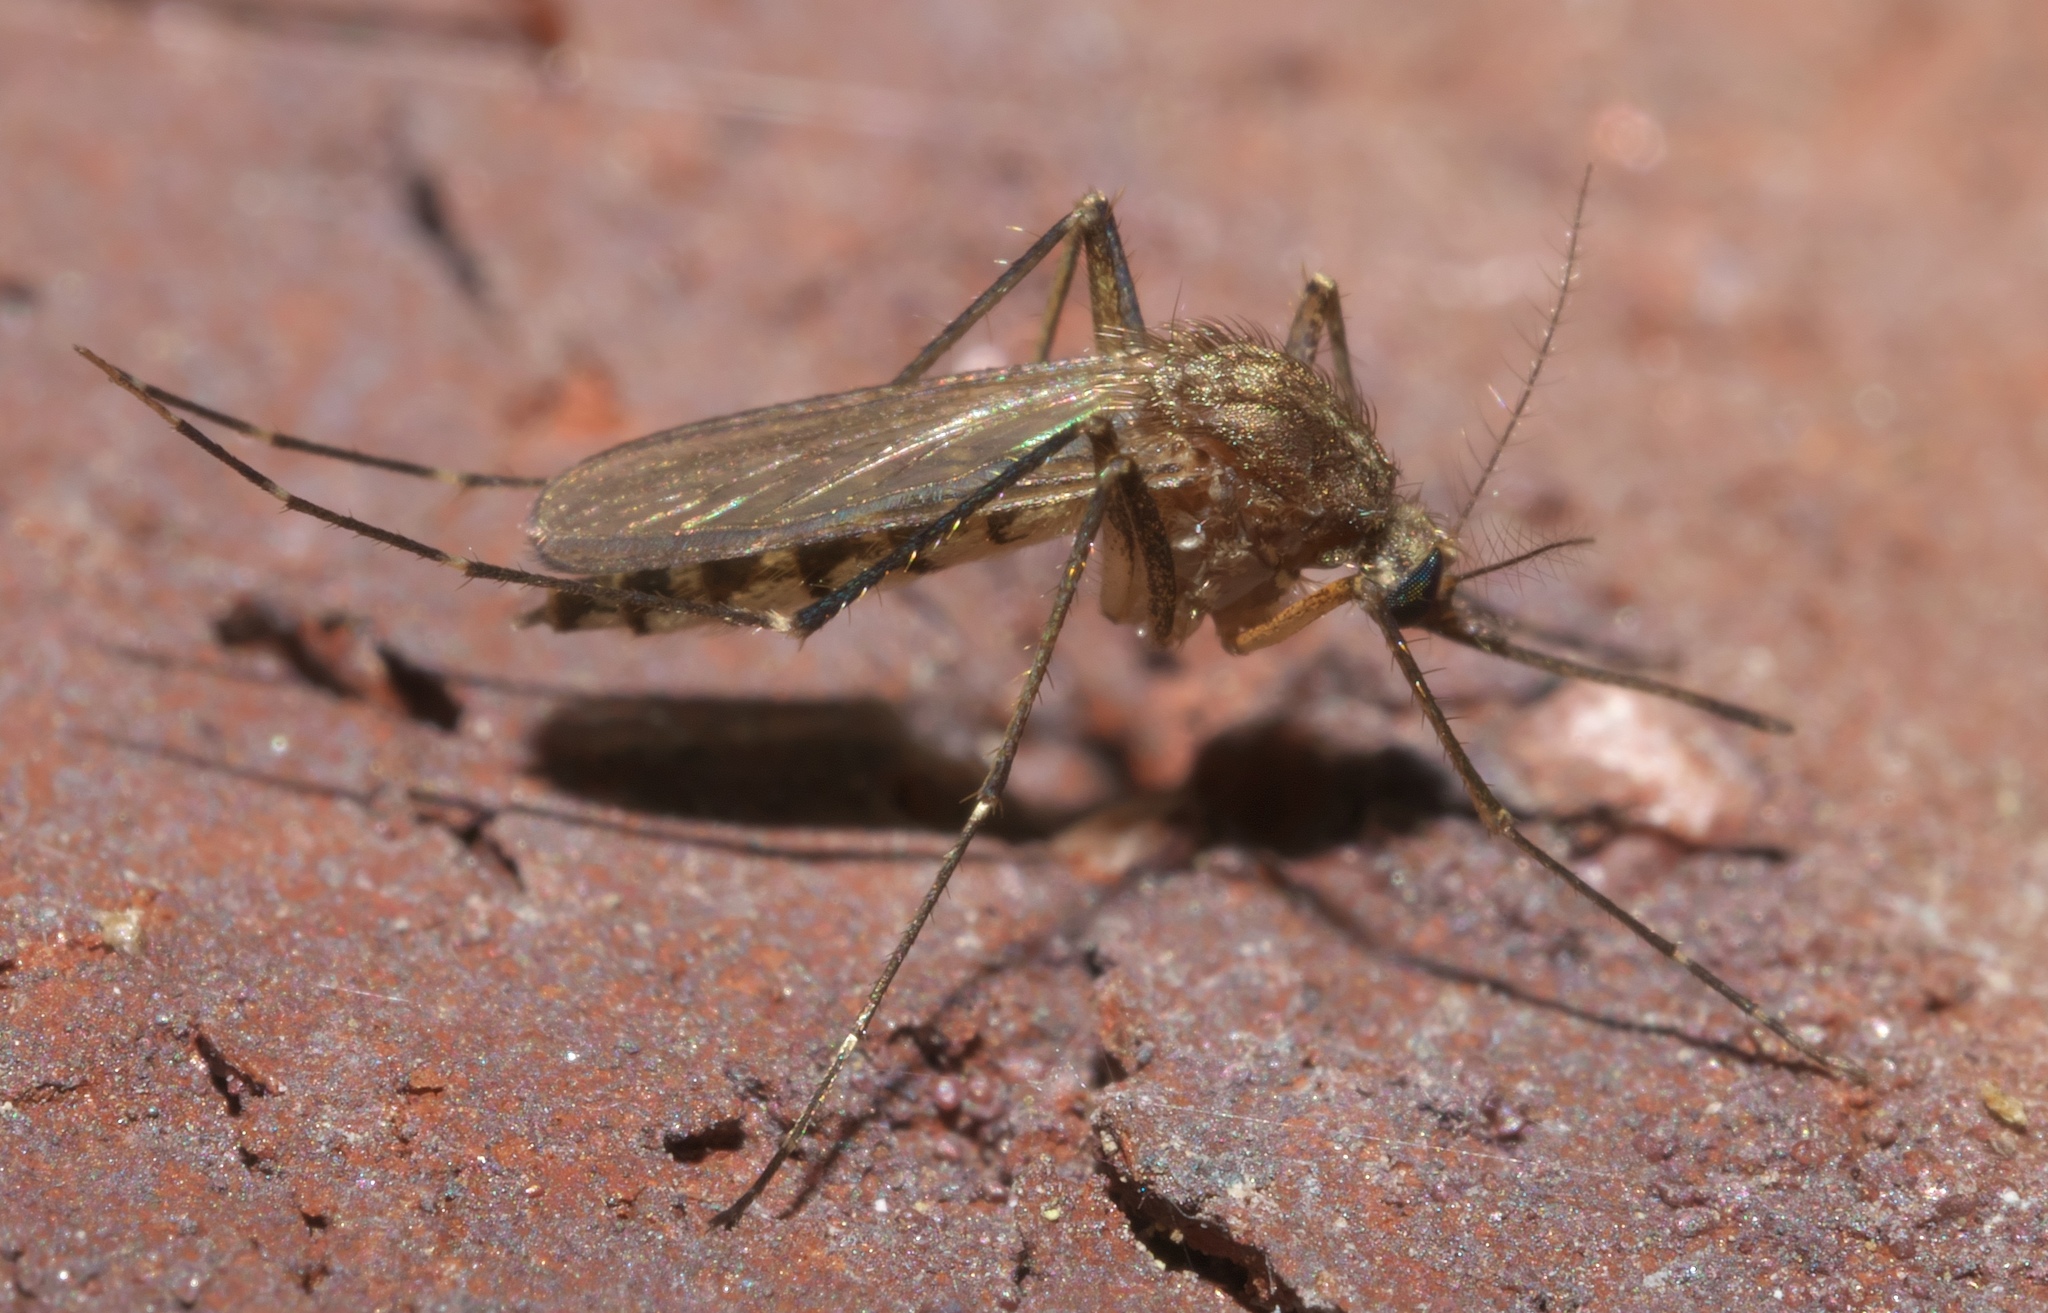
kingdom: Animalia
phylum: Arthropoda
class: Insecta
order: Diptera
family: Culicidae
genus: Aedes
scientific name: Aedes vexans
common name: Inland floodwater mosquito
